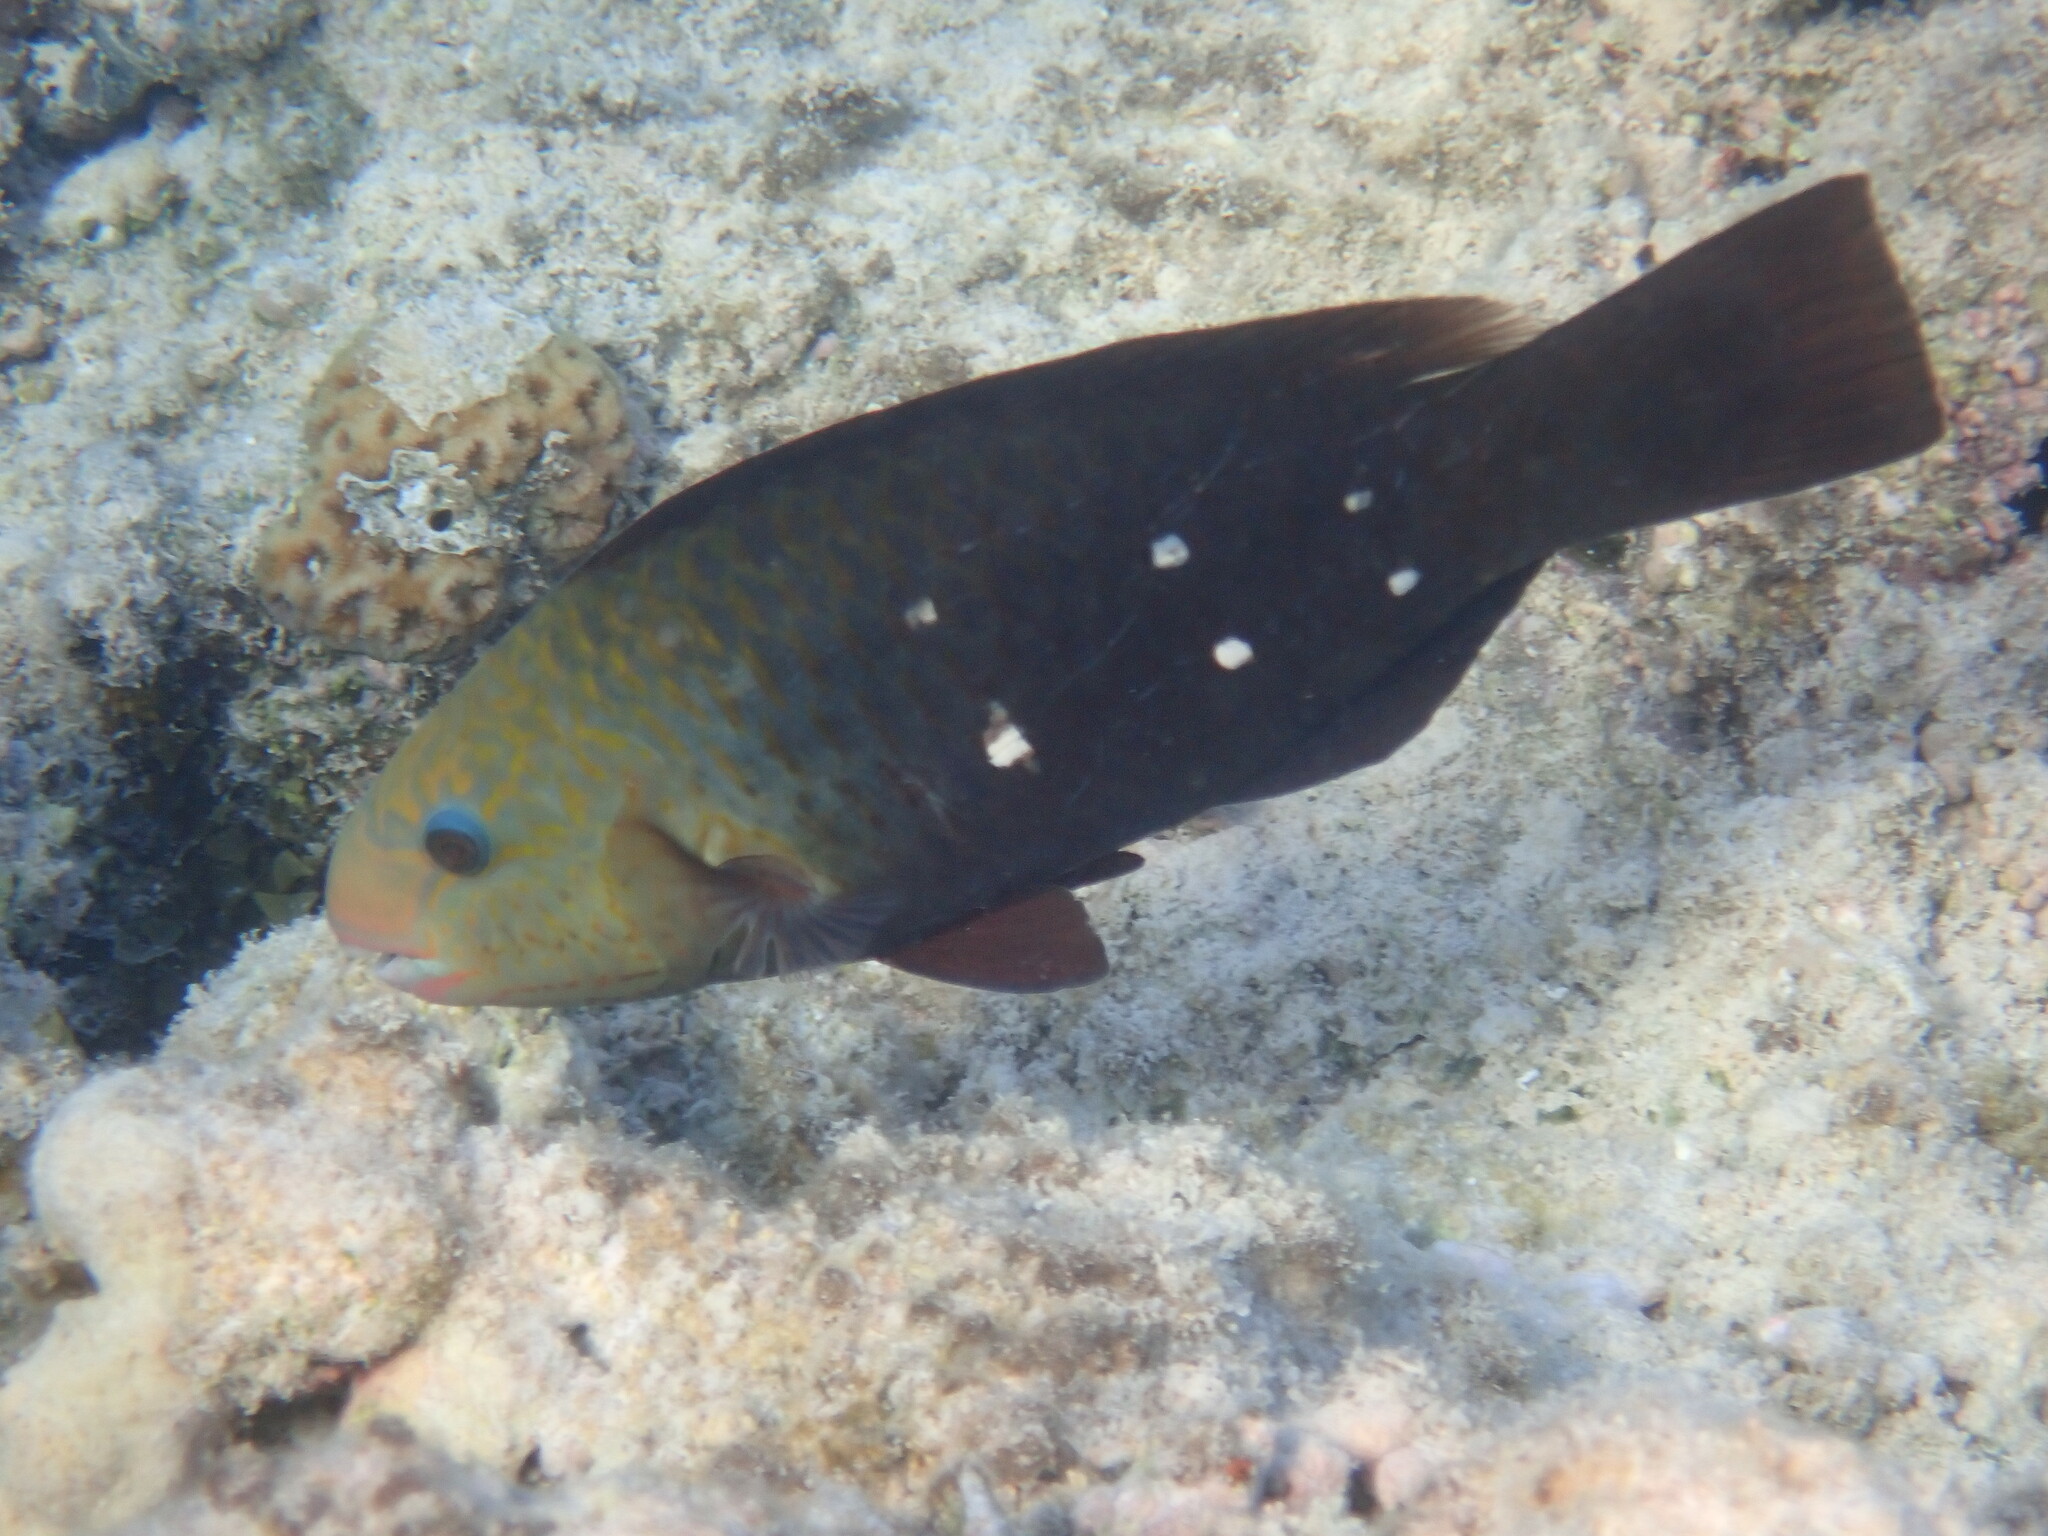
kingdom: Animalia
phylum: Chordata
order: Perciformes
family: Scaridae
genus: Chlorurus
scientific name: Chlorurus sordidus
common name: Bullethead parrotfish
